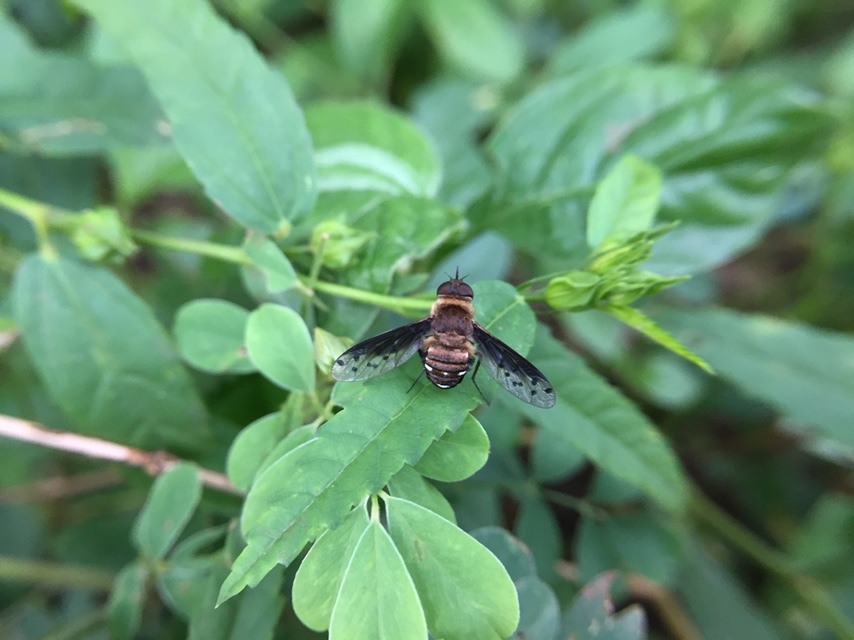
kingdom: Animalia
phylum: Arthropoda
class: Insecta
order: Diptera
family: Bombyliidae
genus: Exoprosopa
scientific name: Exoprosopa niveiventris
